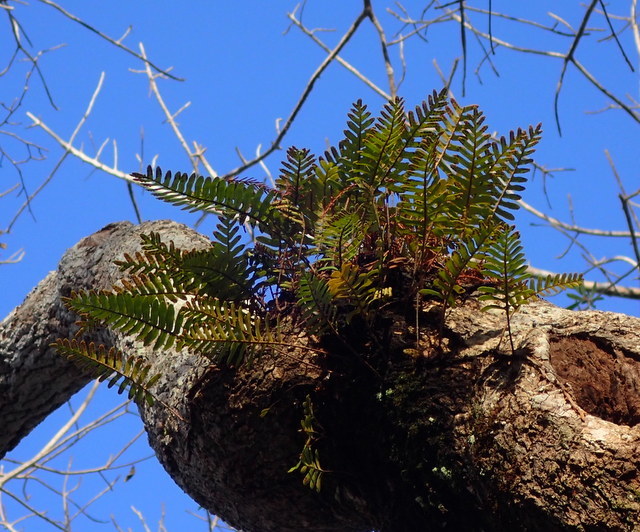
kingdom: Plantae
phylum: Tracheophyta
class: Polypodiopsida
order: Polypodiales
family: Polypodiaceae
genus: Pleopeltis
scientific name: Pleopeltis michauxiana
